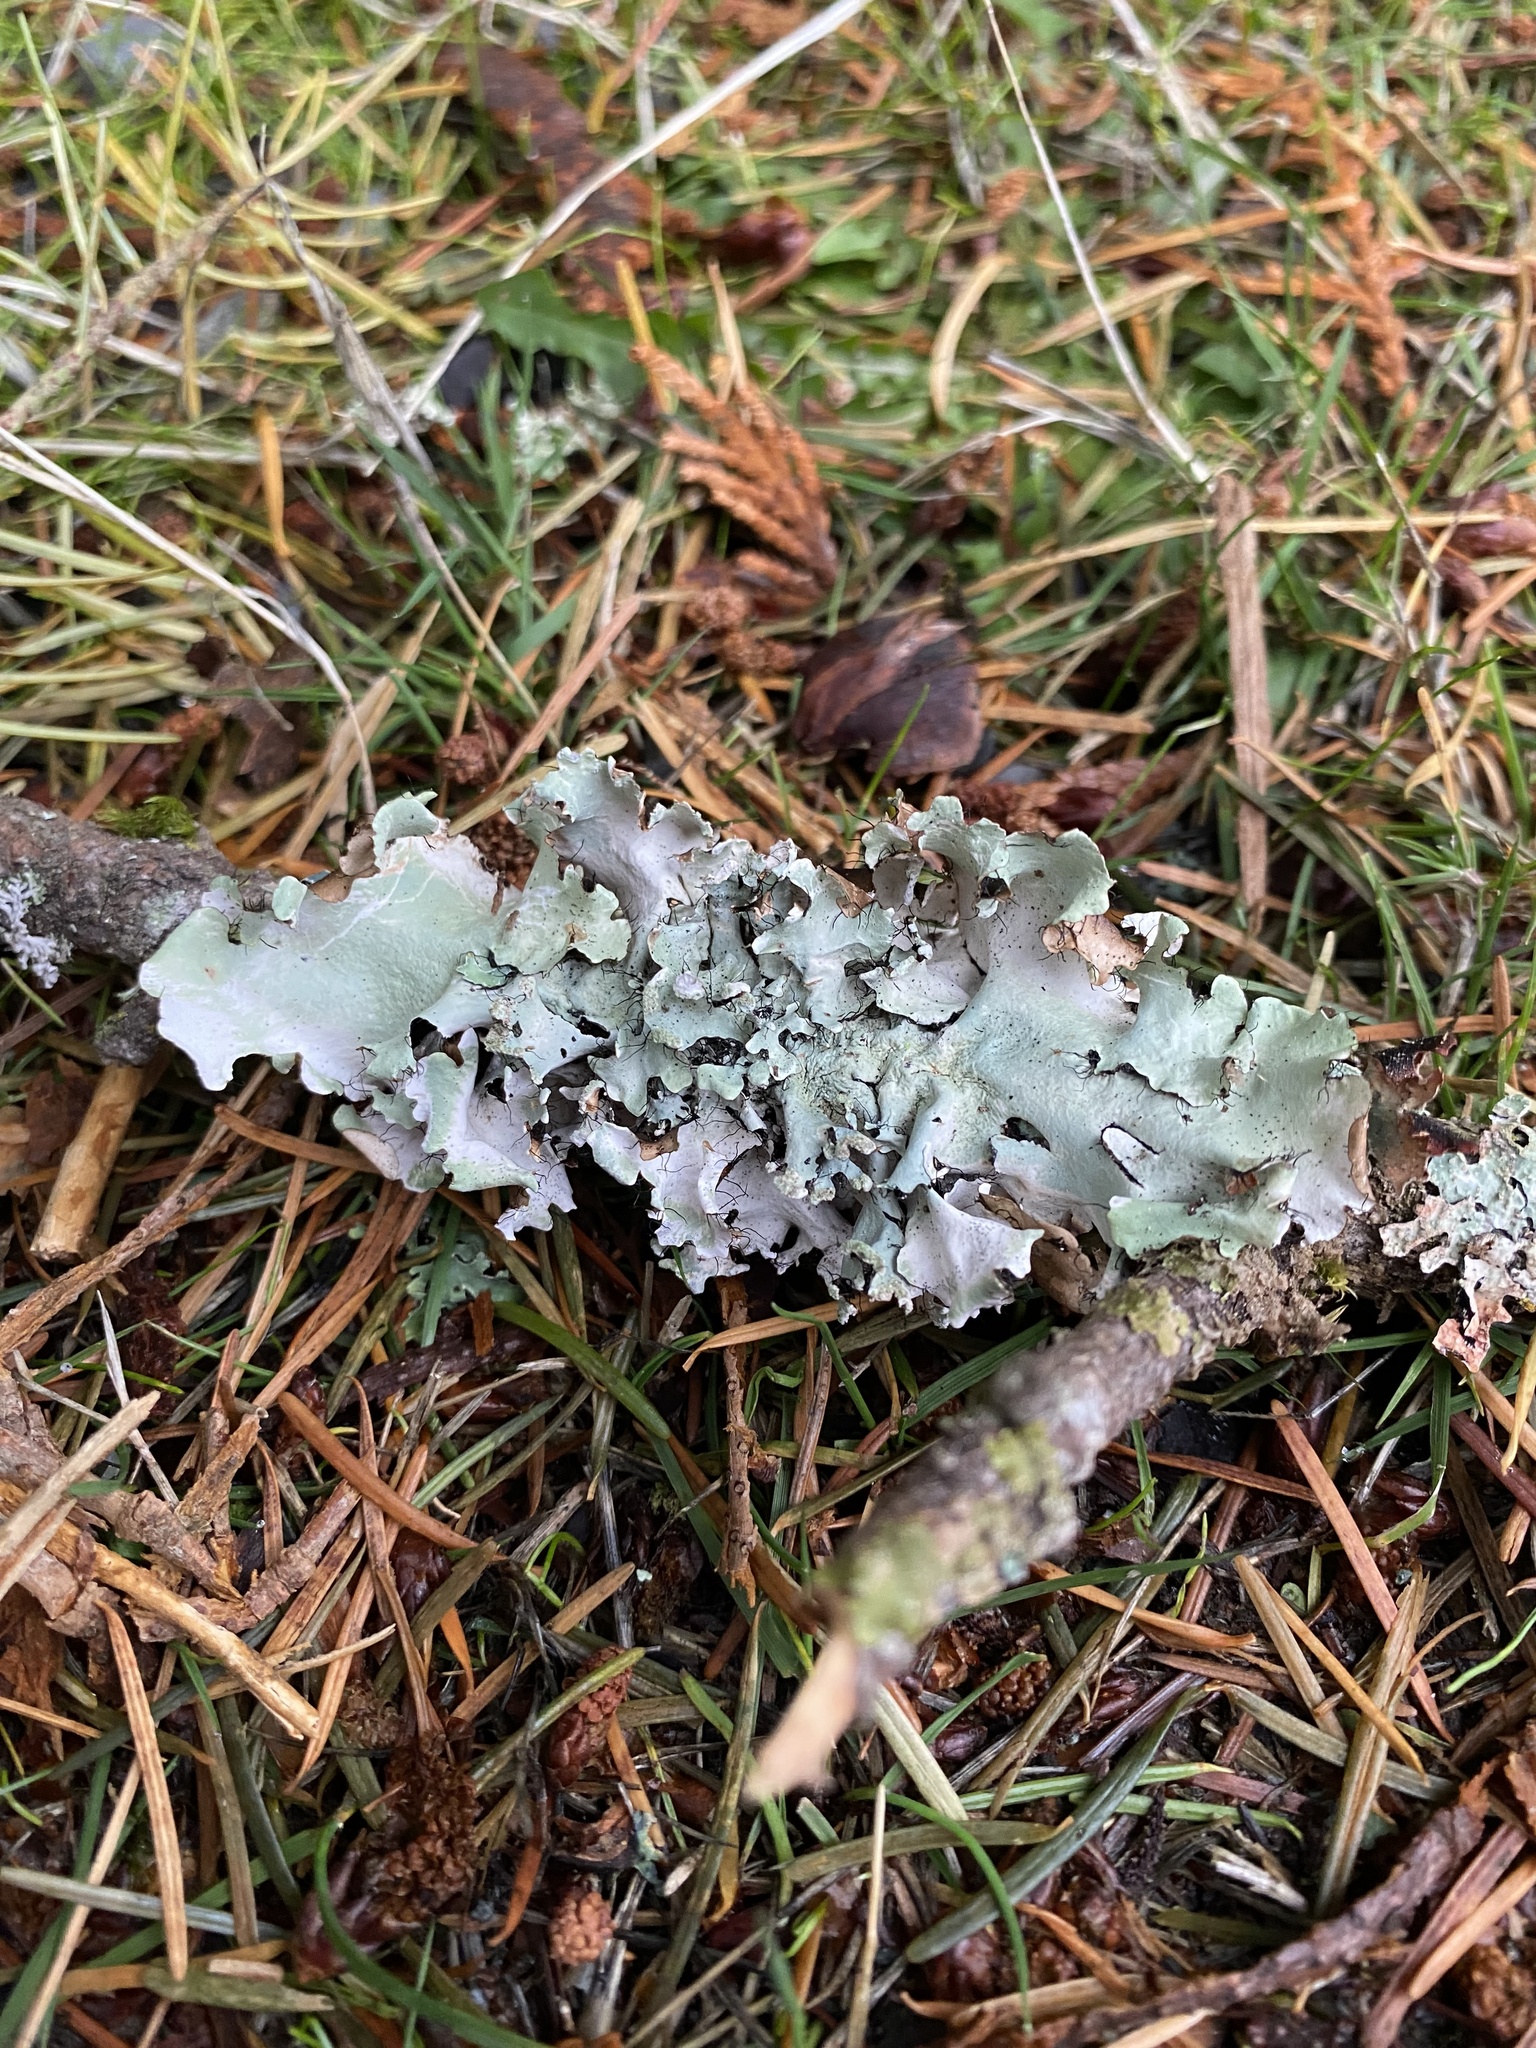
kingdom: Fungi
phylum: Ascomycota
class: Lecanoromycetes
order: Lecanorales
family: Parmeliaceae
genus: Parmotrema
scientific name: Parmotrema arnoldii
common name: Arnold's parmotrema lichen
